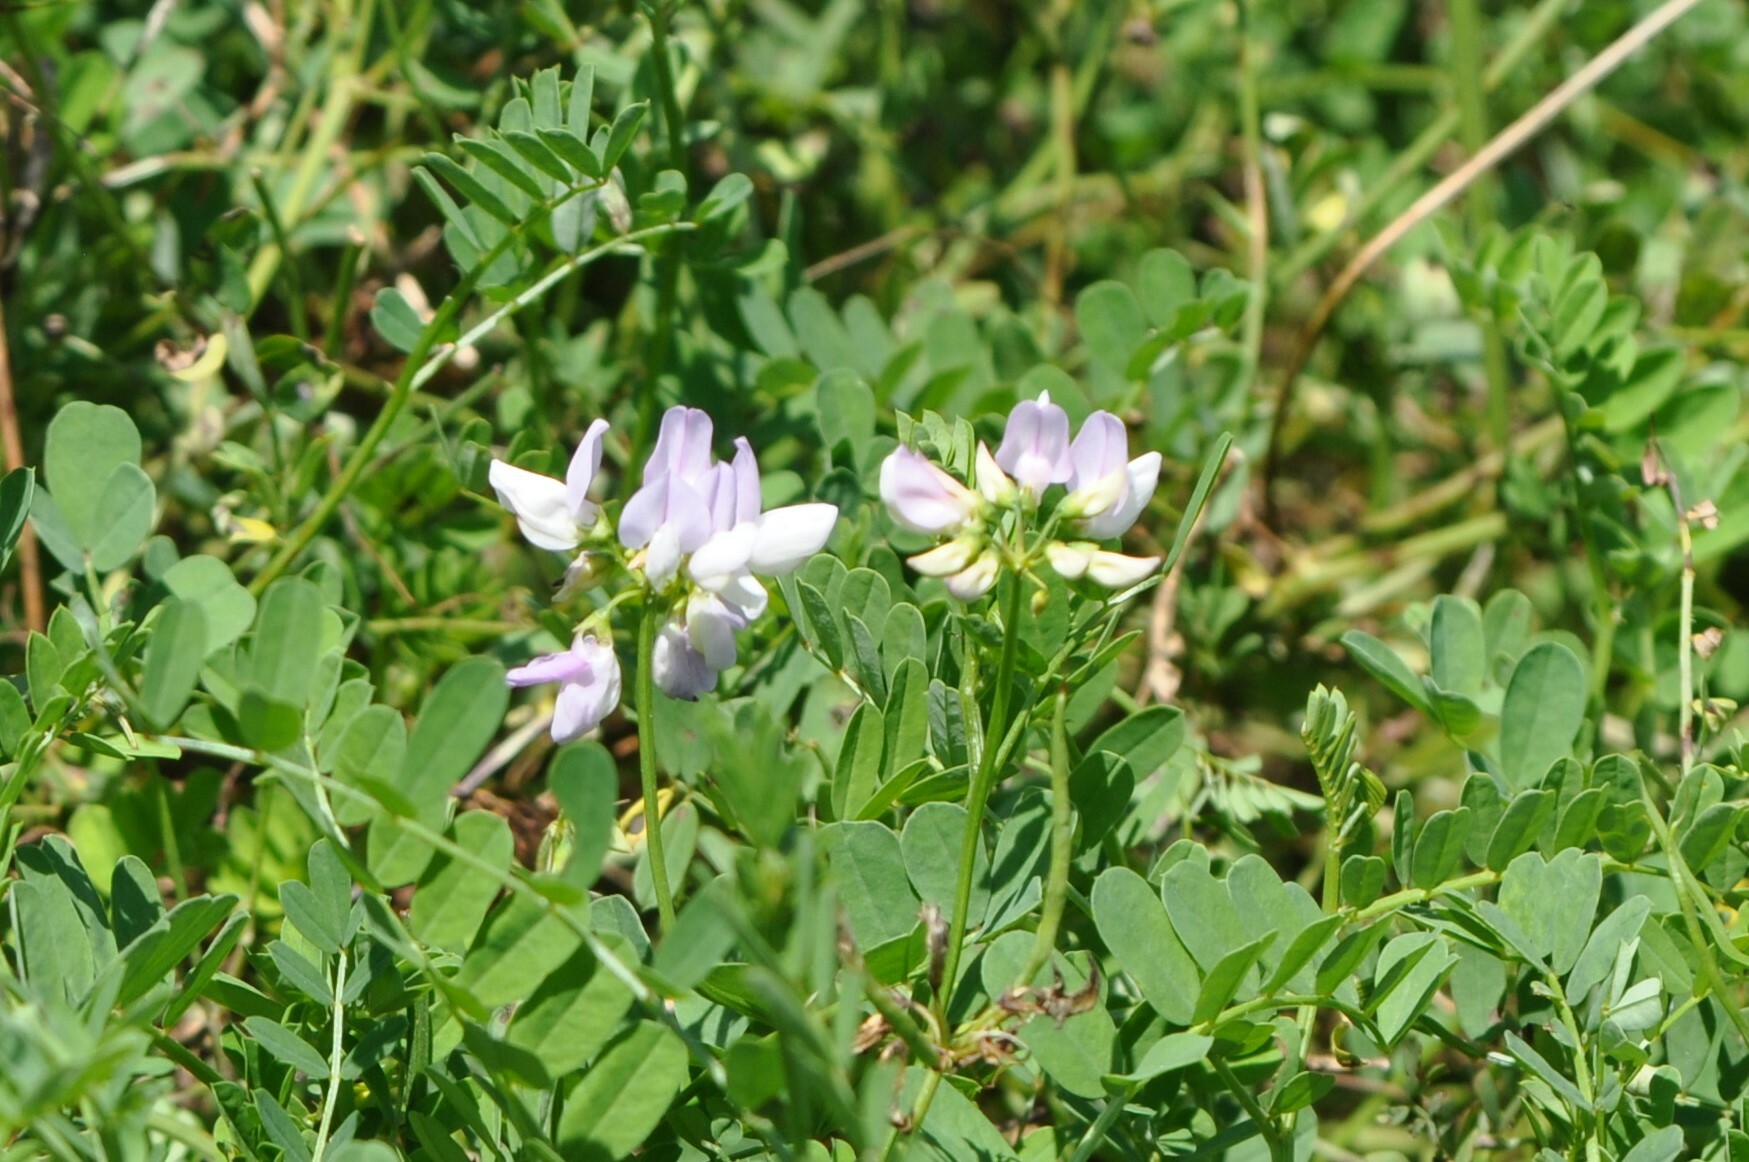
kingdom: Plantae
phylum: Tracheophyta
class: Magnoliopsida
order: Fabales
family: Fabaceae
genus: Coronilla
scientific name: Coronilla varia
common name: Crownvetch
